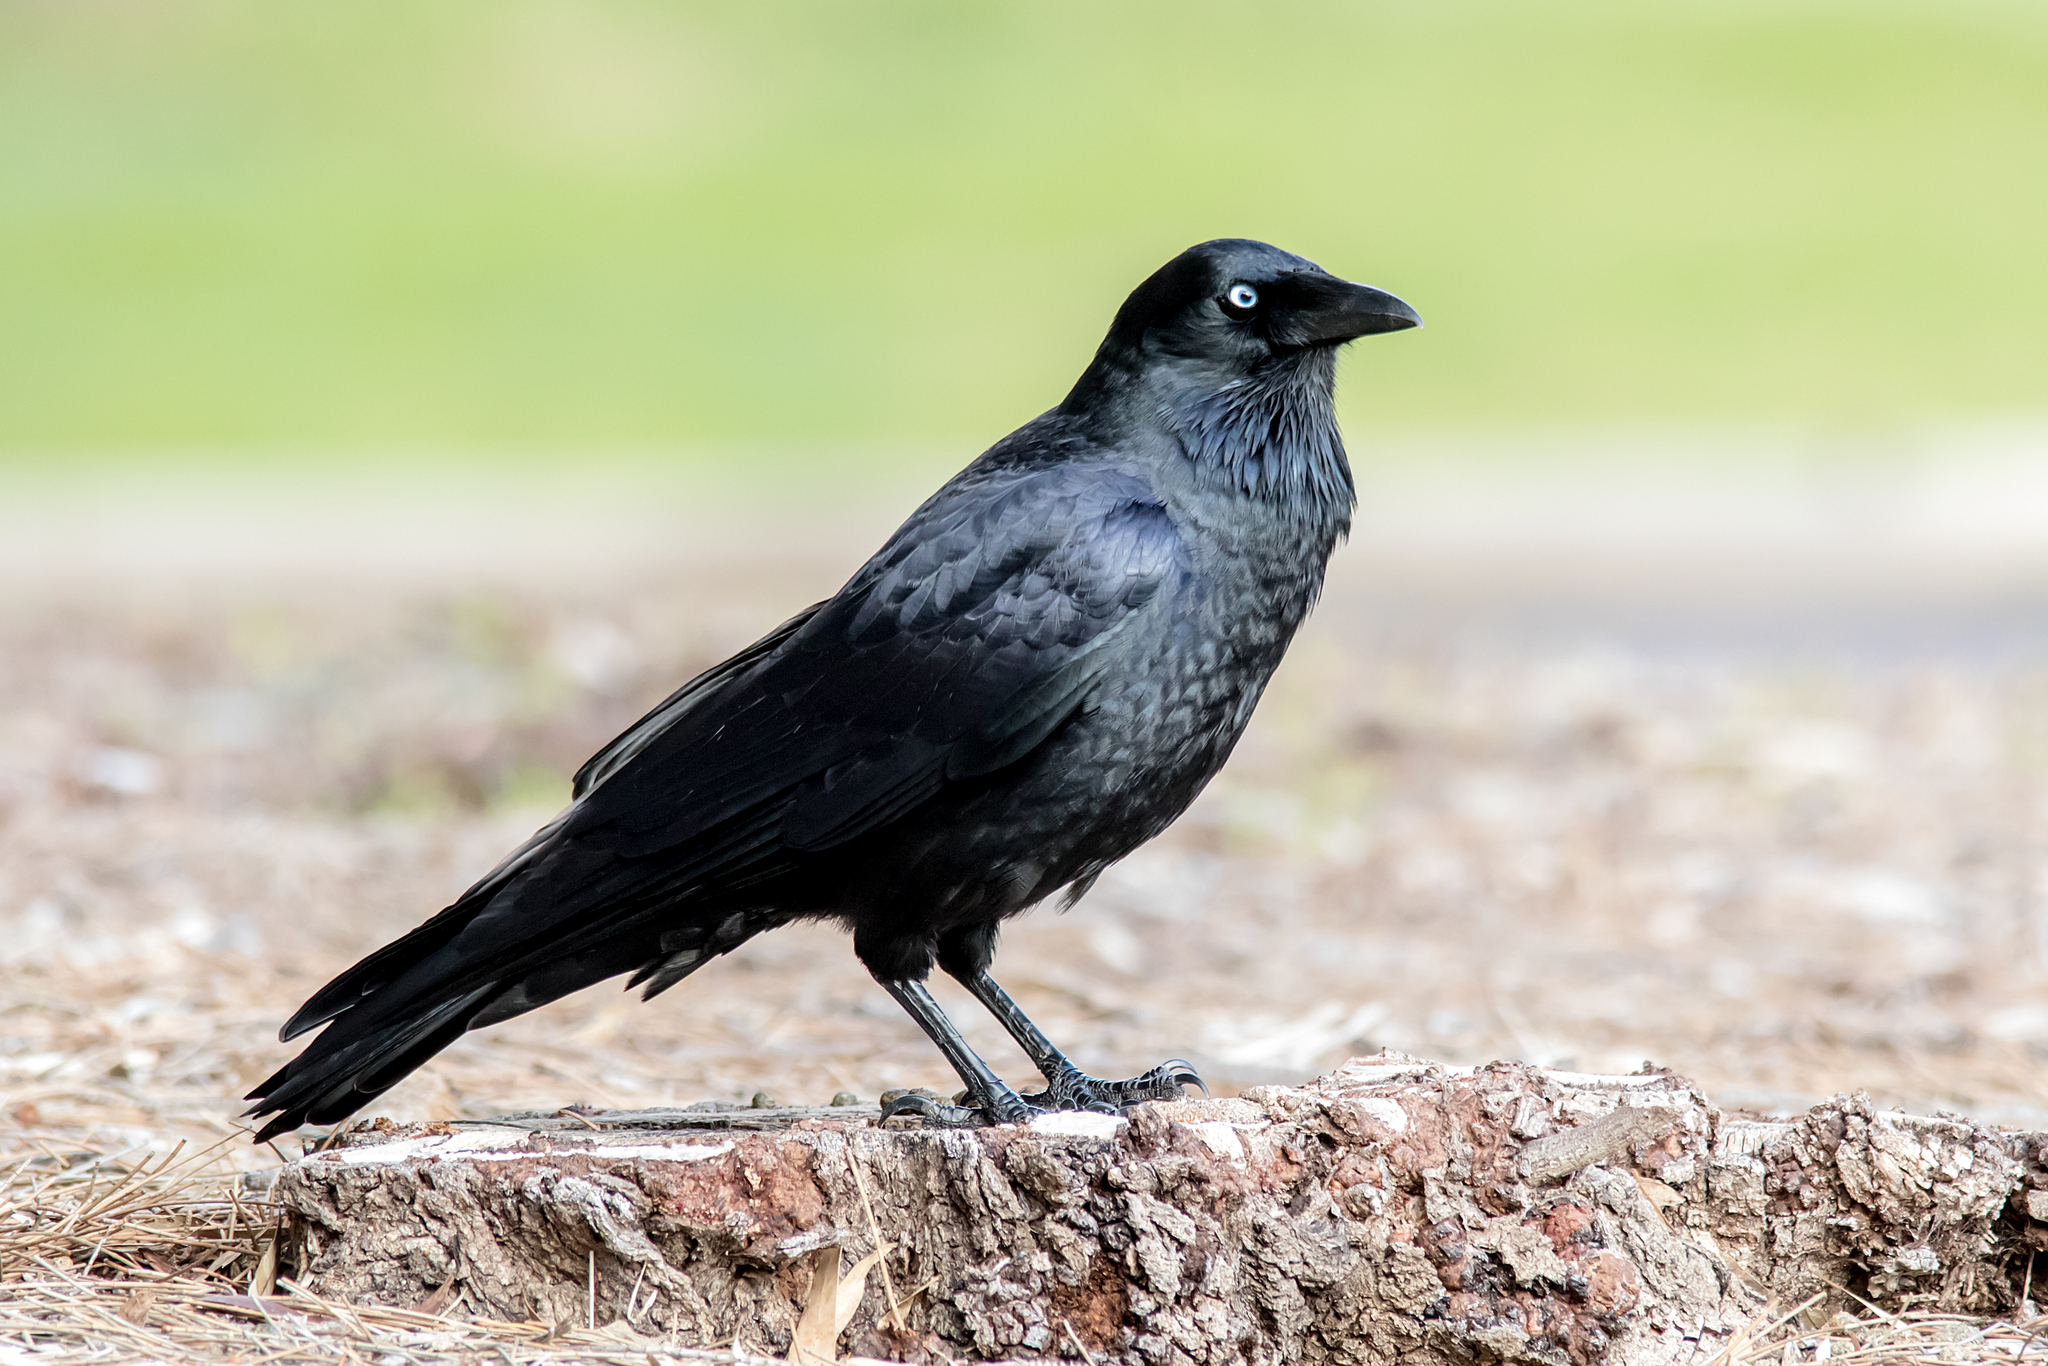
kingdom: Animalia
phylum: Chordata
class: Aves
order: Passeriformes
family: Corvidae
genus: Corvus
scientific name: Corvus mellori
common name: Little raven
